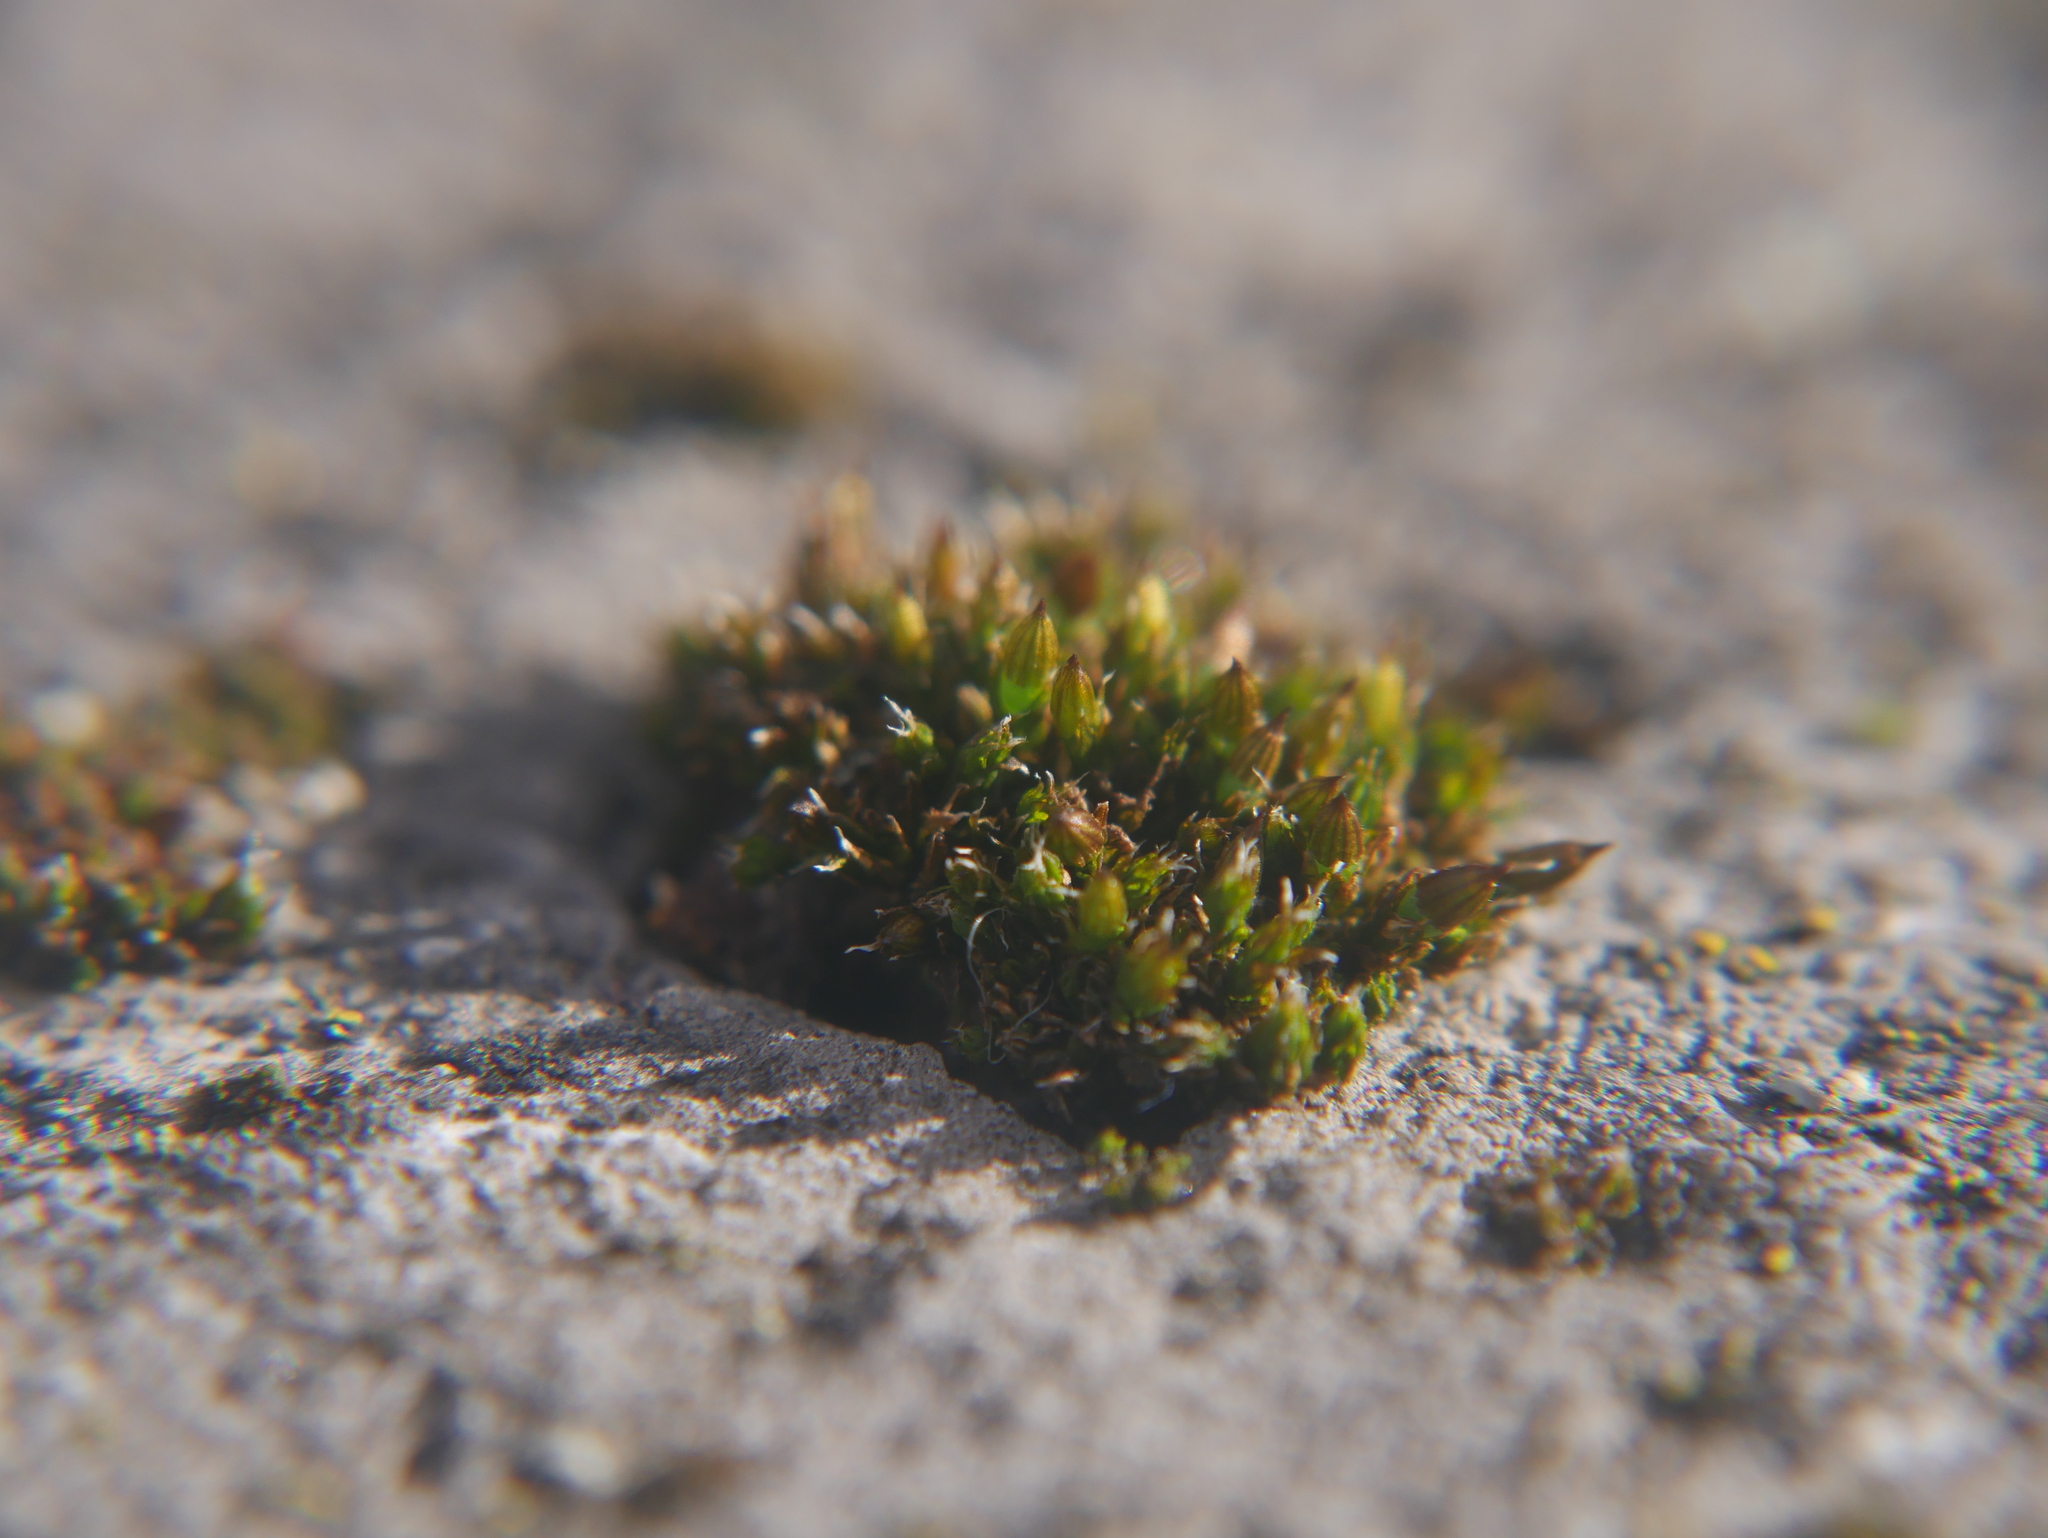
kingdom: Plantae
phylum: Bryophyta
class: Bryopsida
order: Orthotrichales
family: Orthotrichaceae
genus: Orthotrichum
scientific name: Orthotrichum diaphanum
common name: White-tipped bristle-moss
